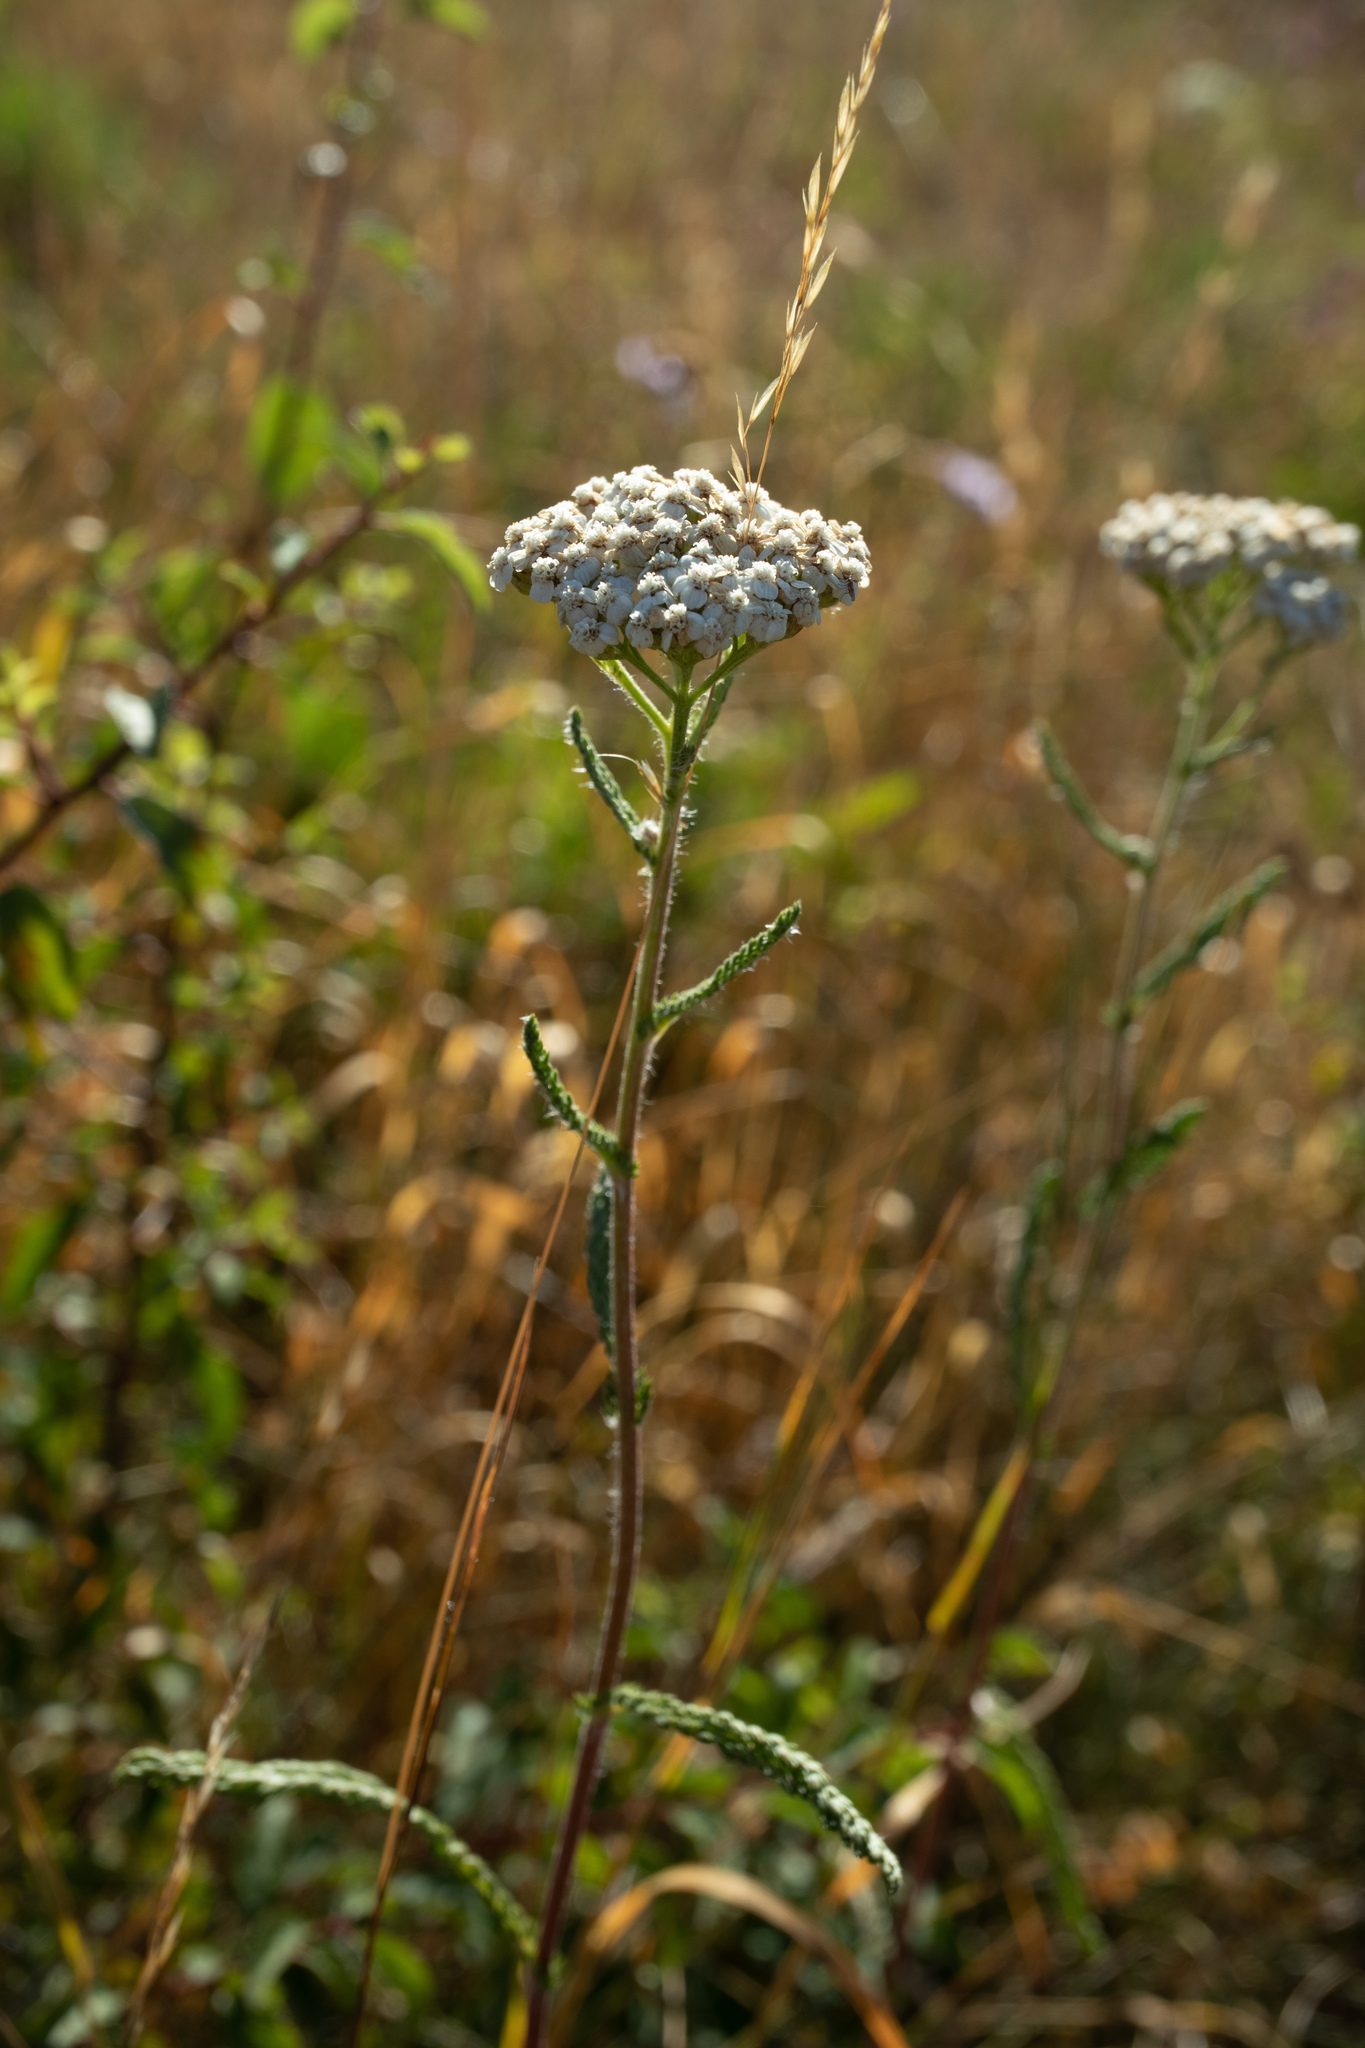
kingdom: Plantae
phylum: Tracheophyta
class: Magnoliopsida
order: Asterales
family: Asteraceae
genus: Achillea
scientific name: Achillea millefolium
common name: Yarrow
